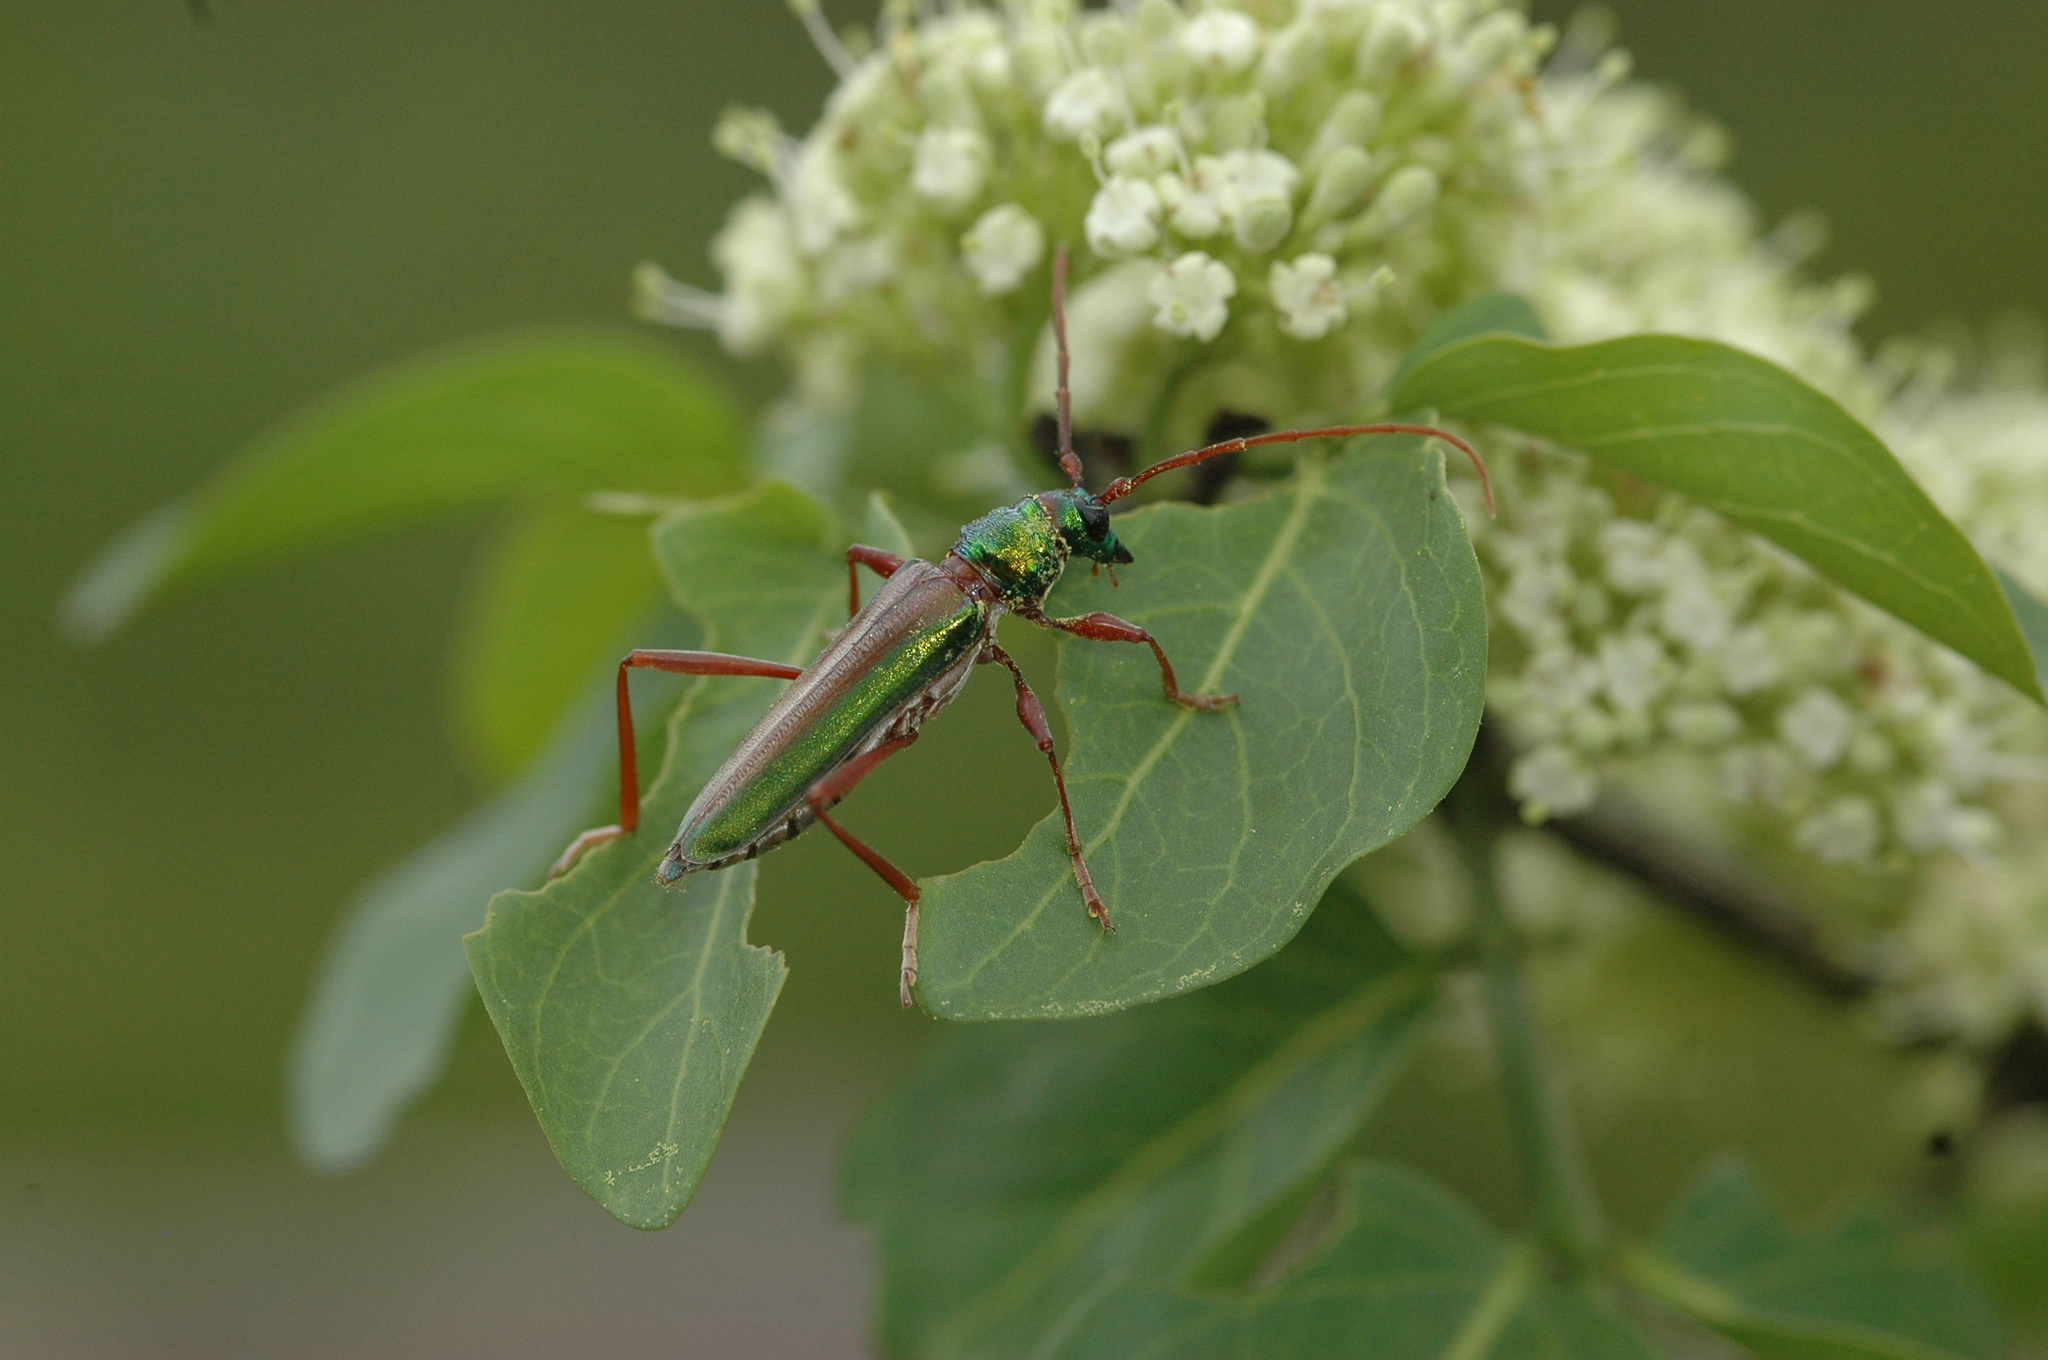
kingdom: Animalia
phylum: Arthropoda
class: Insecta
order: Coleoptera
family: Cerambycidae
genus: Chromalizus
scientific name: Chromalizus leucorhaphis
